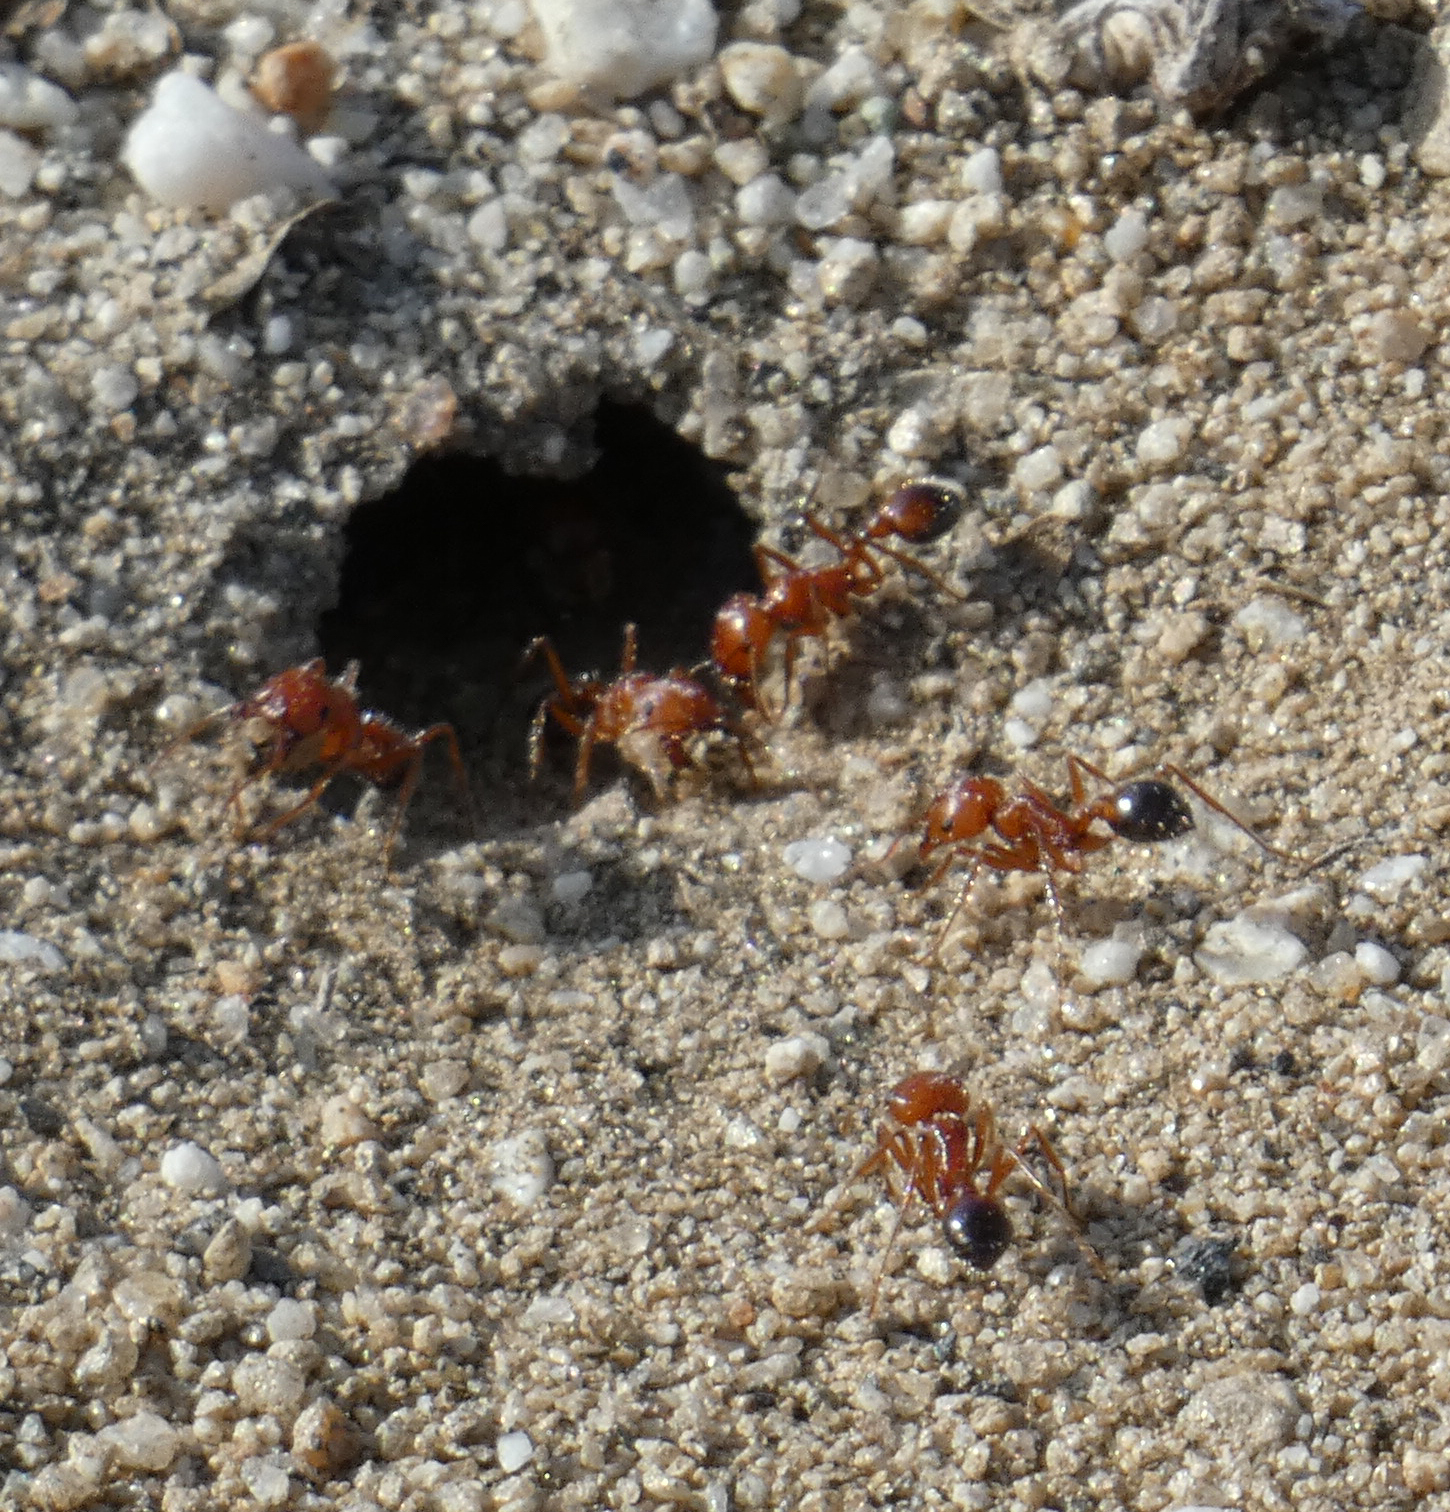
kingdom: Animalia
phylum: Arthropoda
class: Insecta
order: Hymenoptera
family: Formicidae
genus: Pogonomyrmex
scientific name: Pogonomyrmex californicus
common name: California harvester ant
